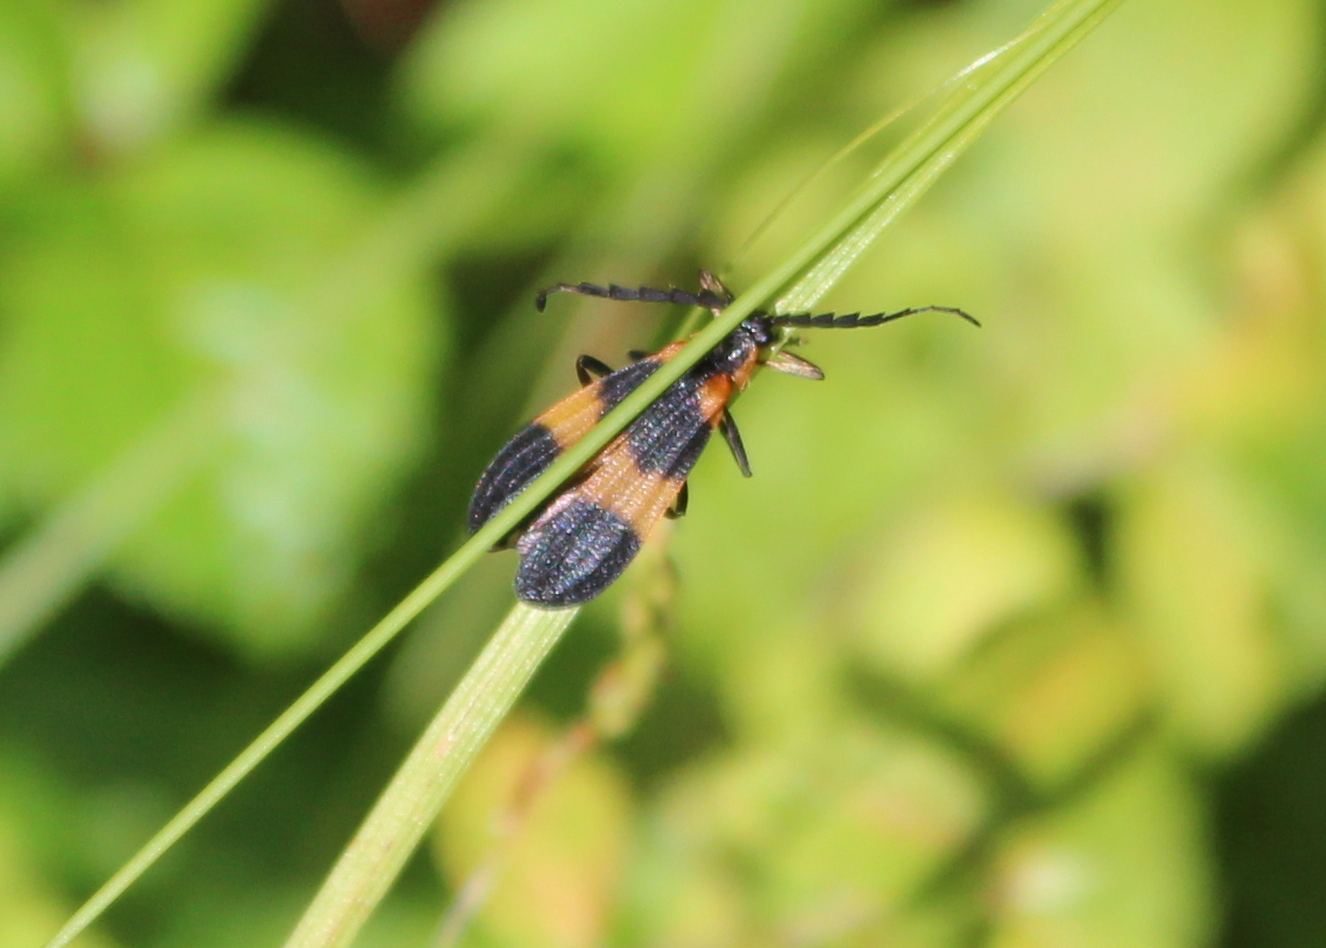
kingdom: Animalia
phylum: Arthropoda
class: Insecta
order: Coleoptera
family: Lycidae
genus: Calopteron
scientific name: Calopteron reticulatum
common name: Banded net-winged beetle
